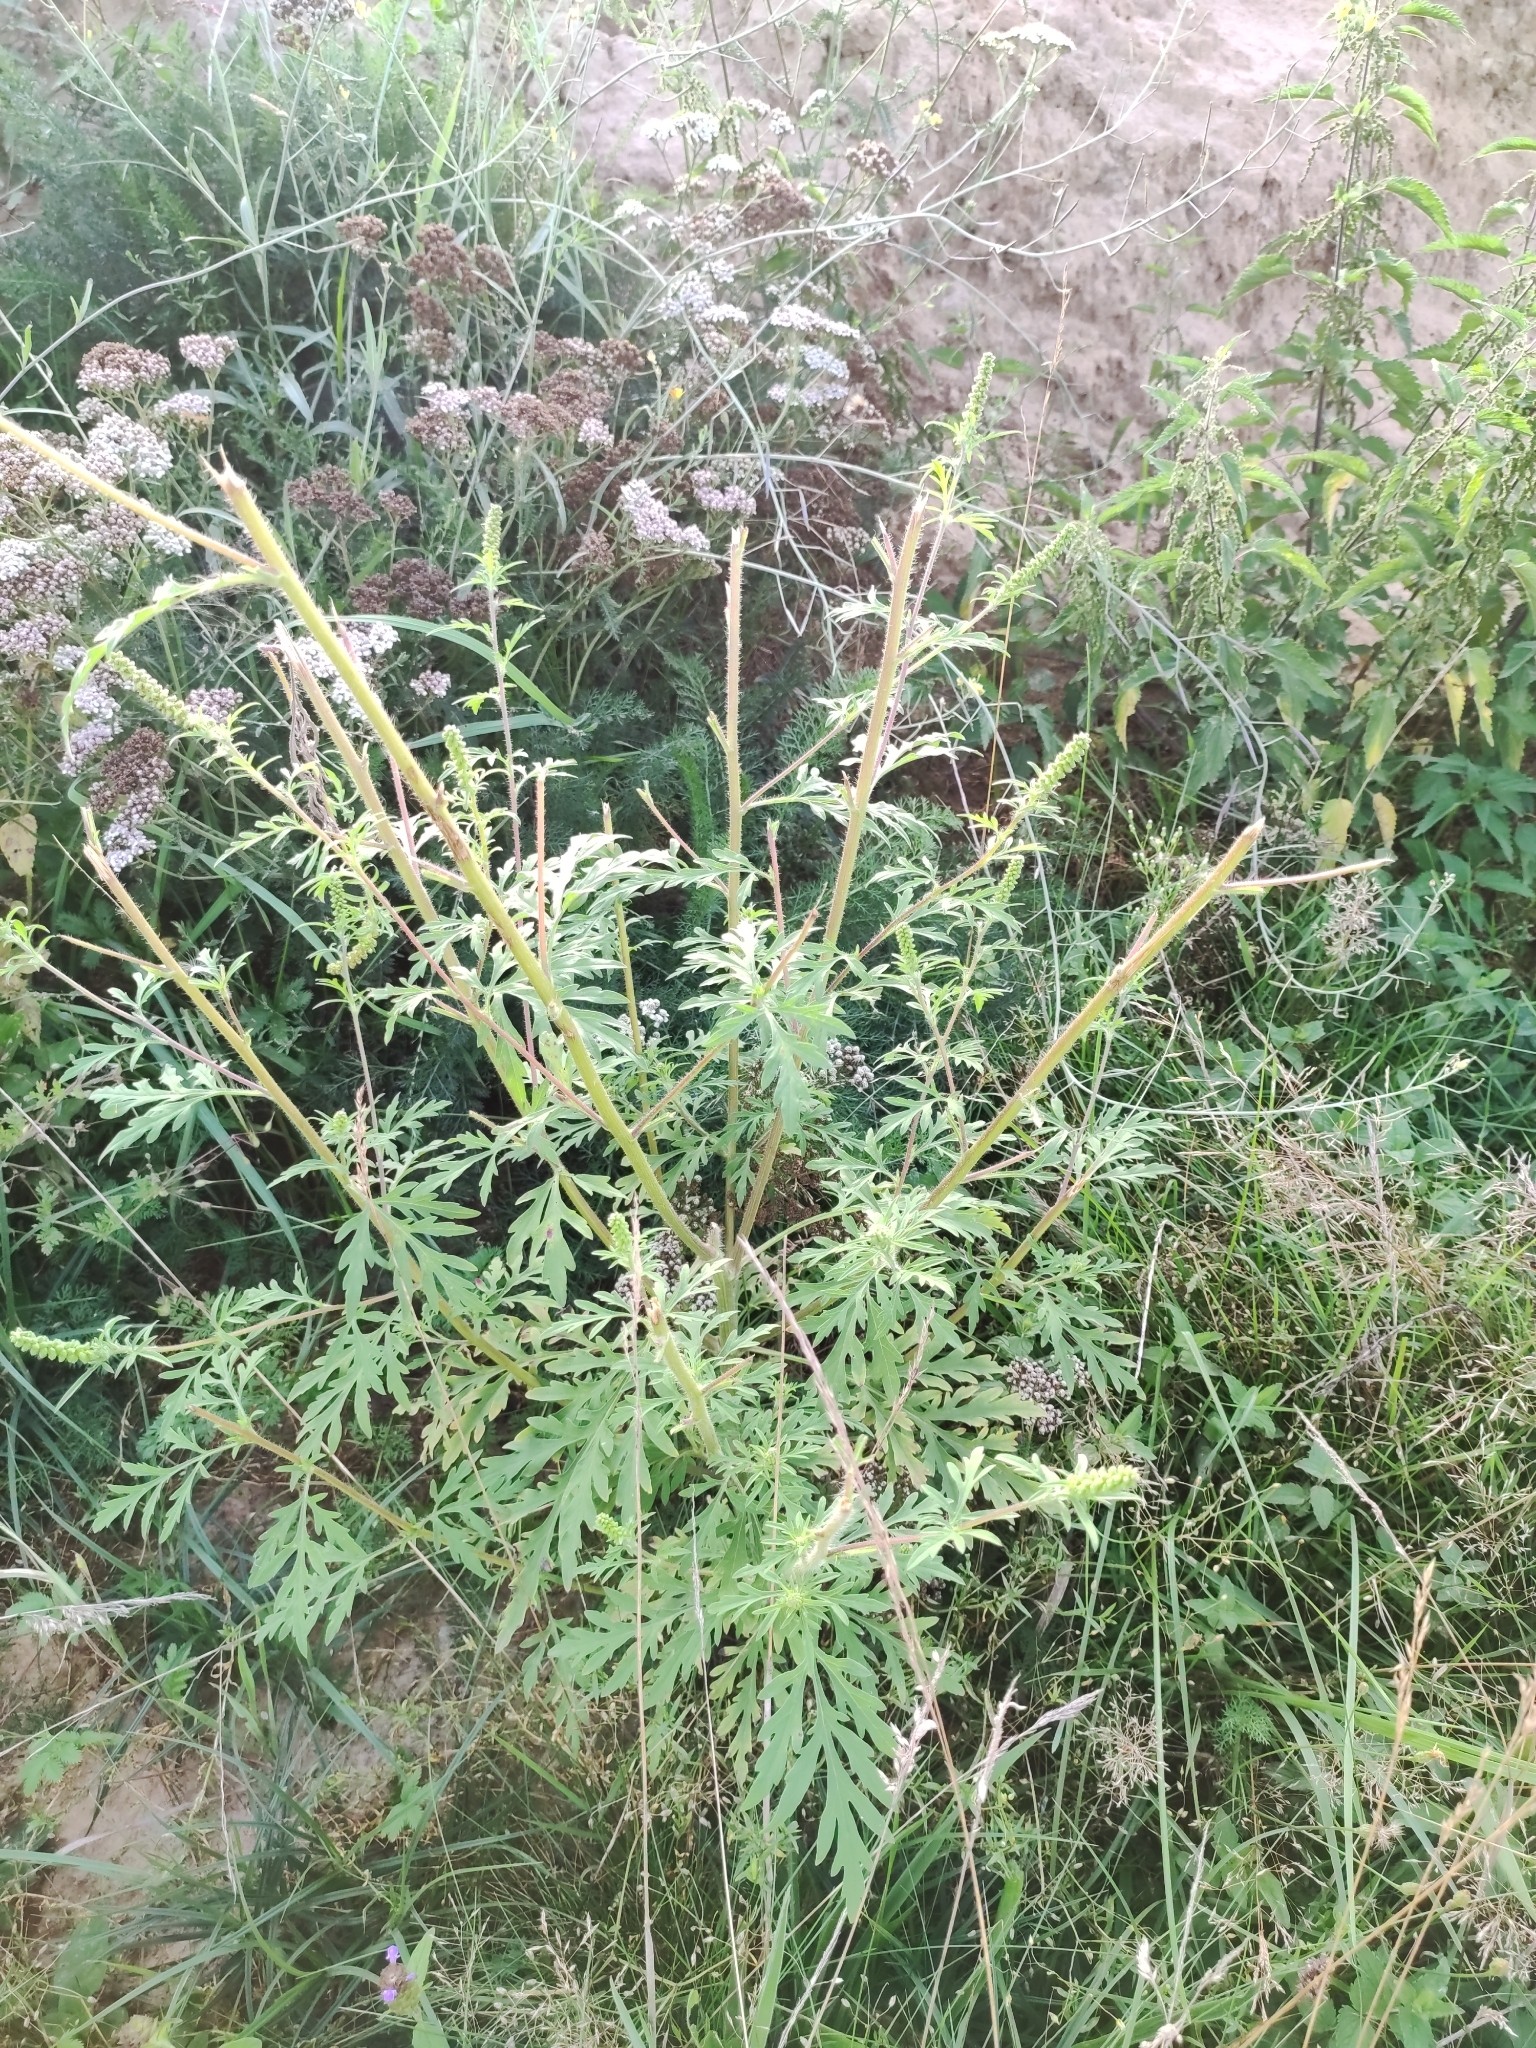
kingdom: Plantae
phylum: Tracheophyta
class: Magnoliopsida
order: Asterales
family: Asteraceae
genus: Ambrosia
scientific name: Ambrosia artemisiifolia
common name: Annual ragweed
